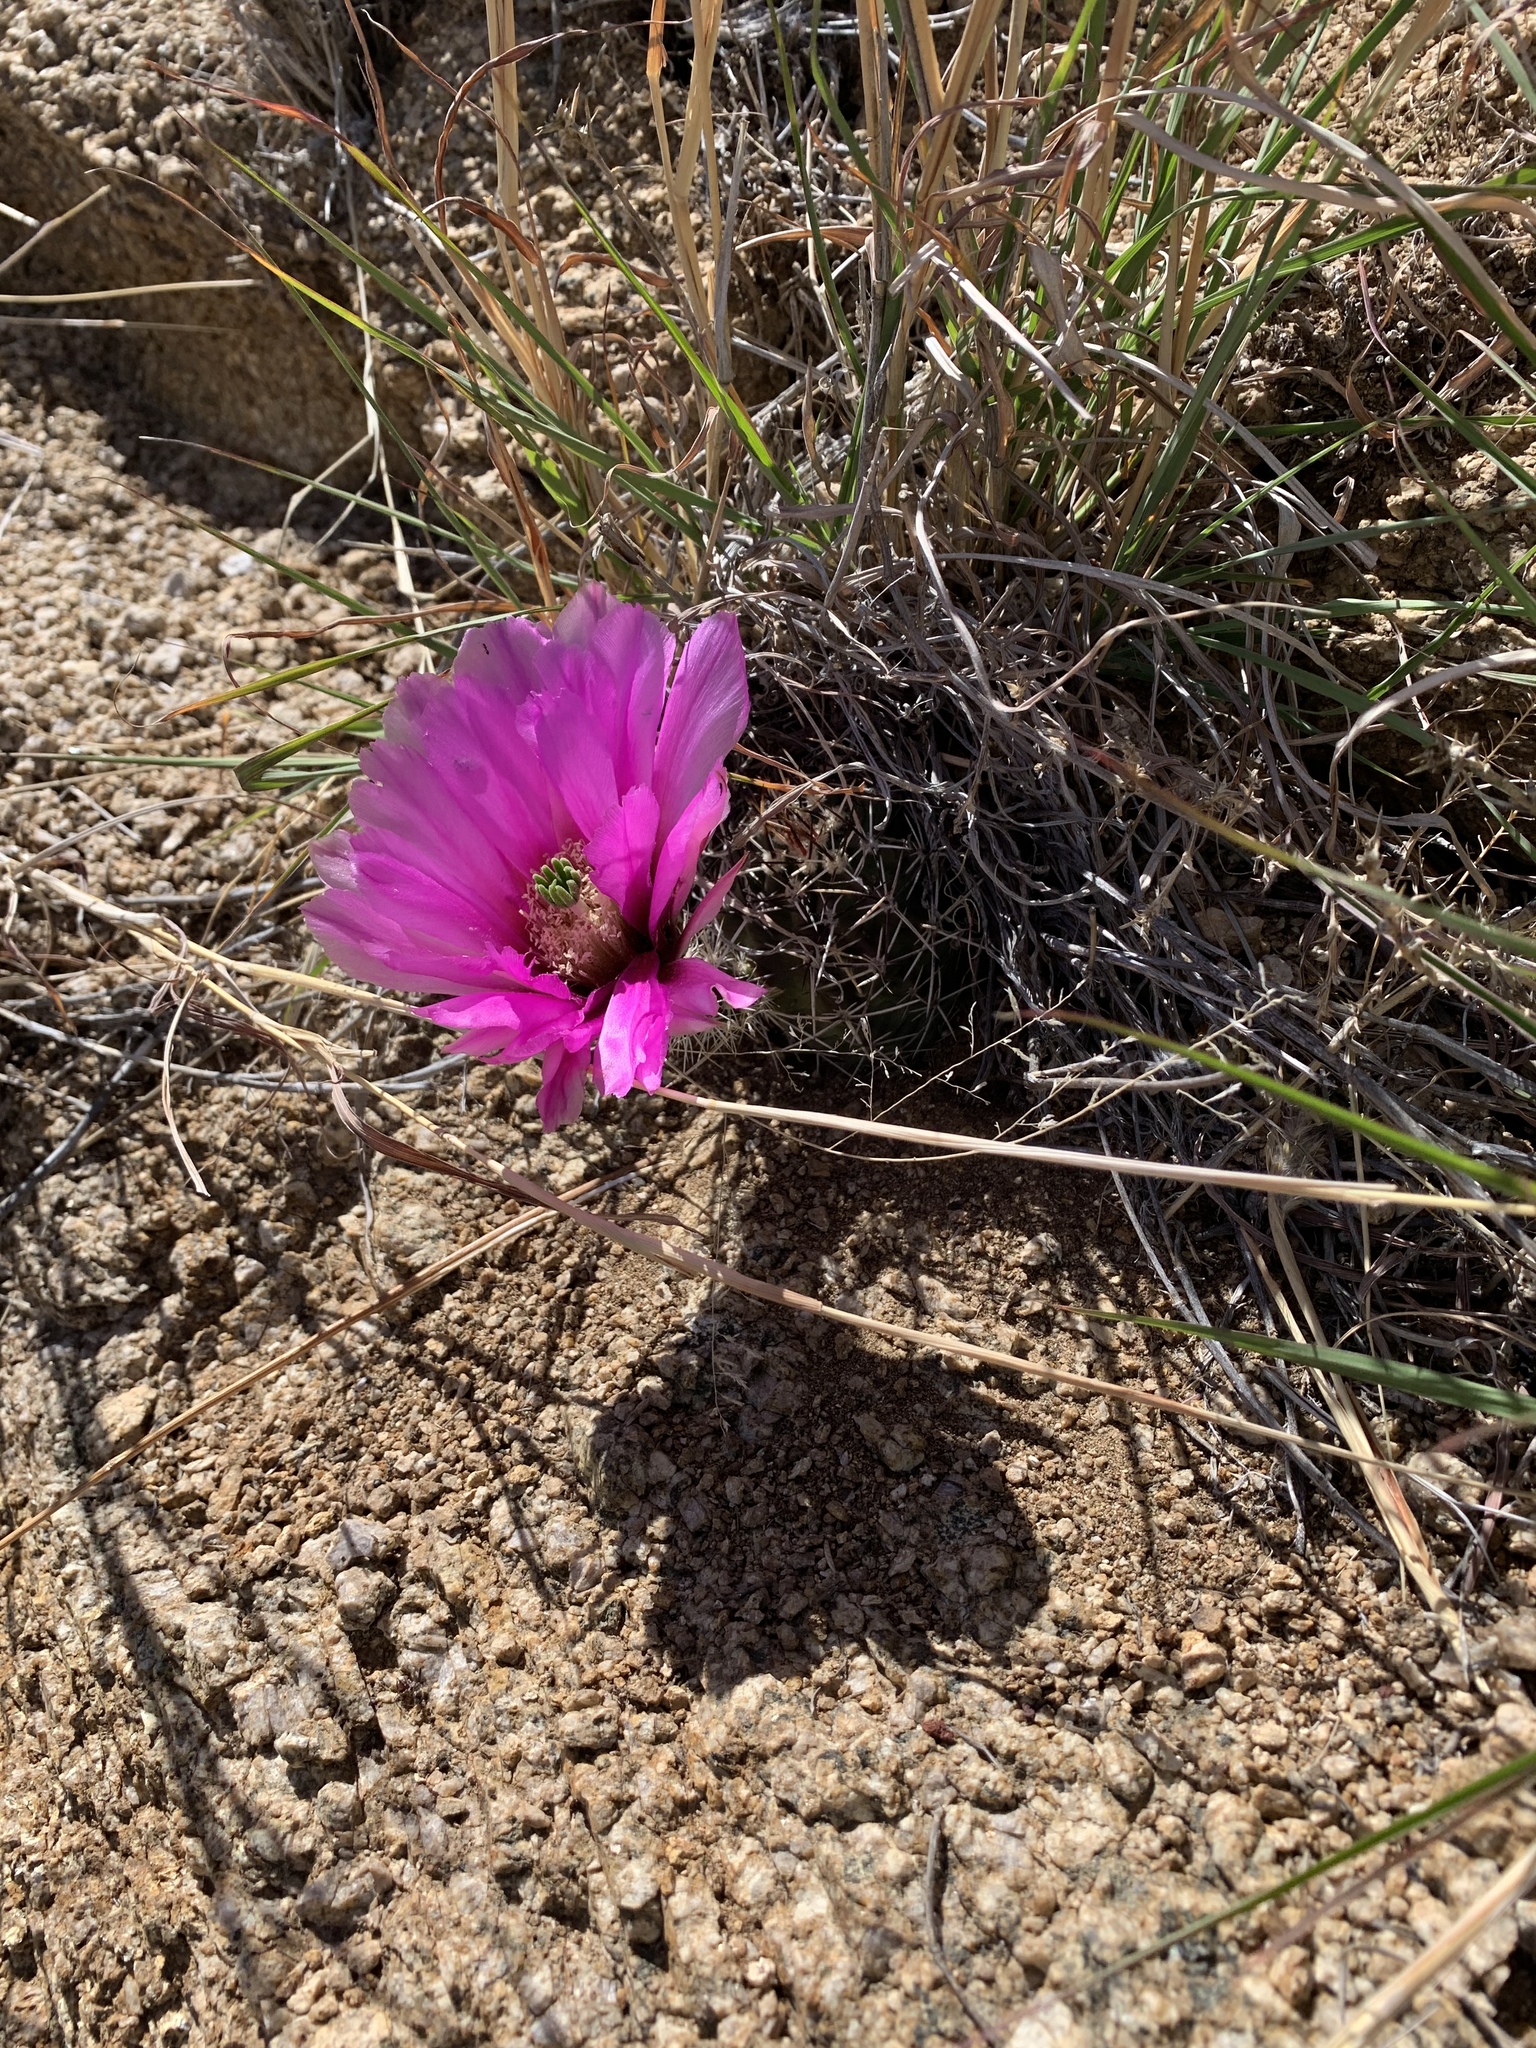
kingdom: Plantae
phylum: Tracheophyta
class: Magnoliopsida
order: Caryophyllales
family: Cactaceae
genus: Echinocereus
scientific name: Echinocereus fendleri
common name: Fendler's hedgehog cactus
